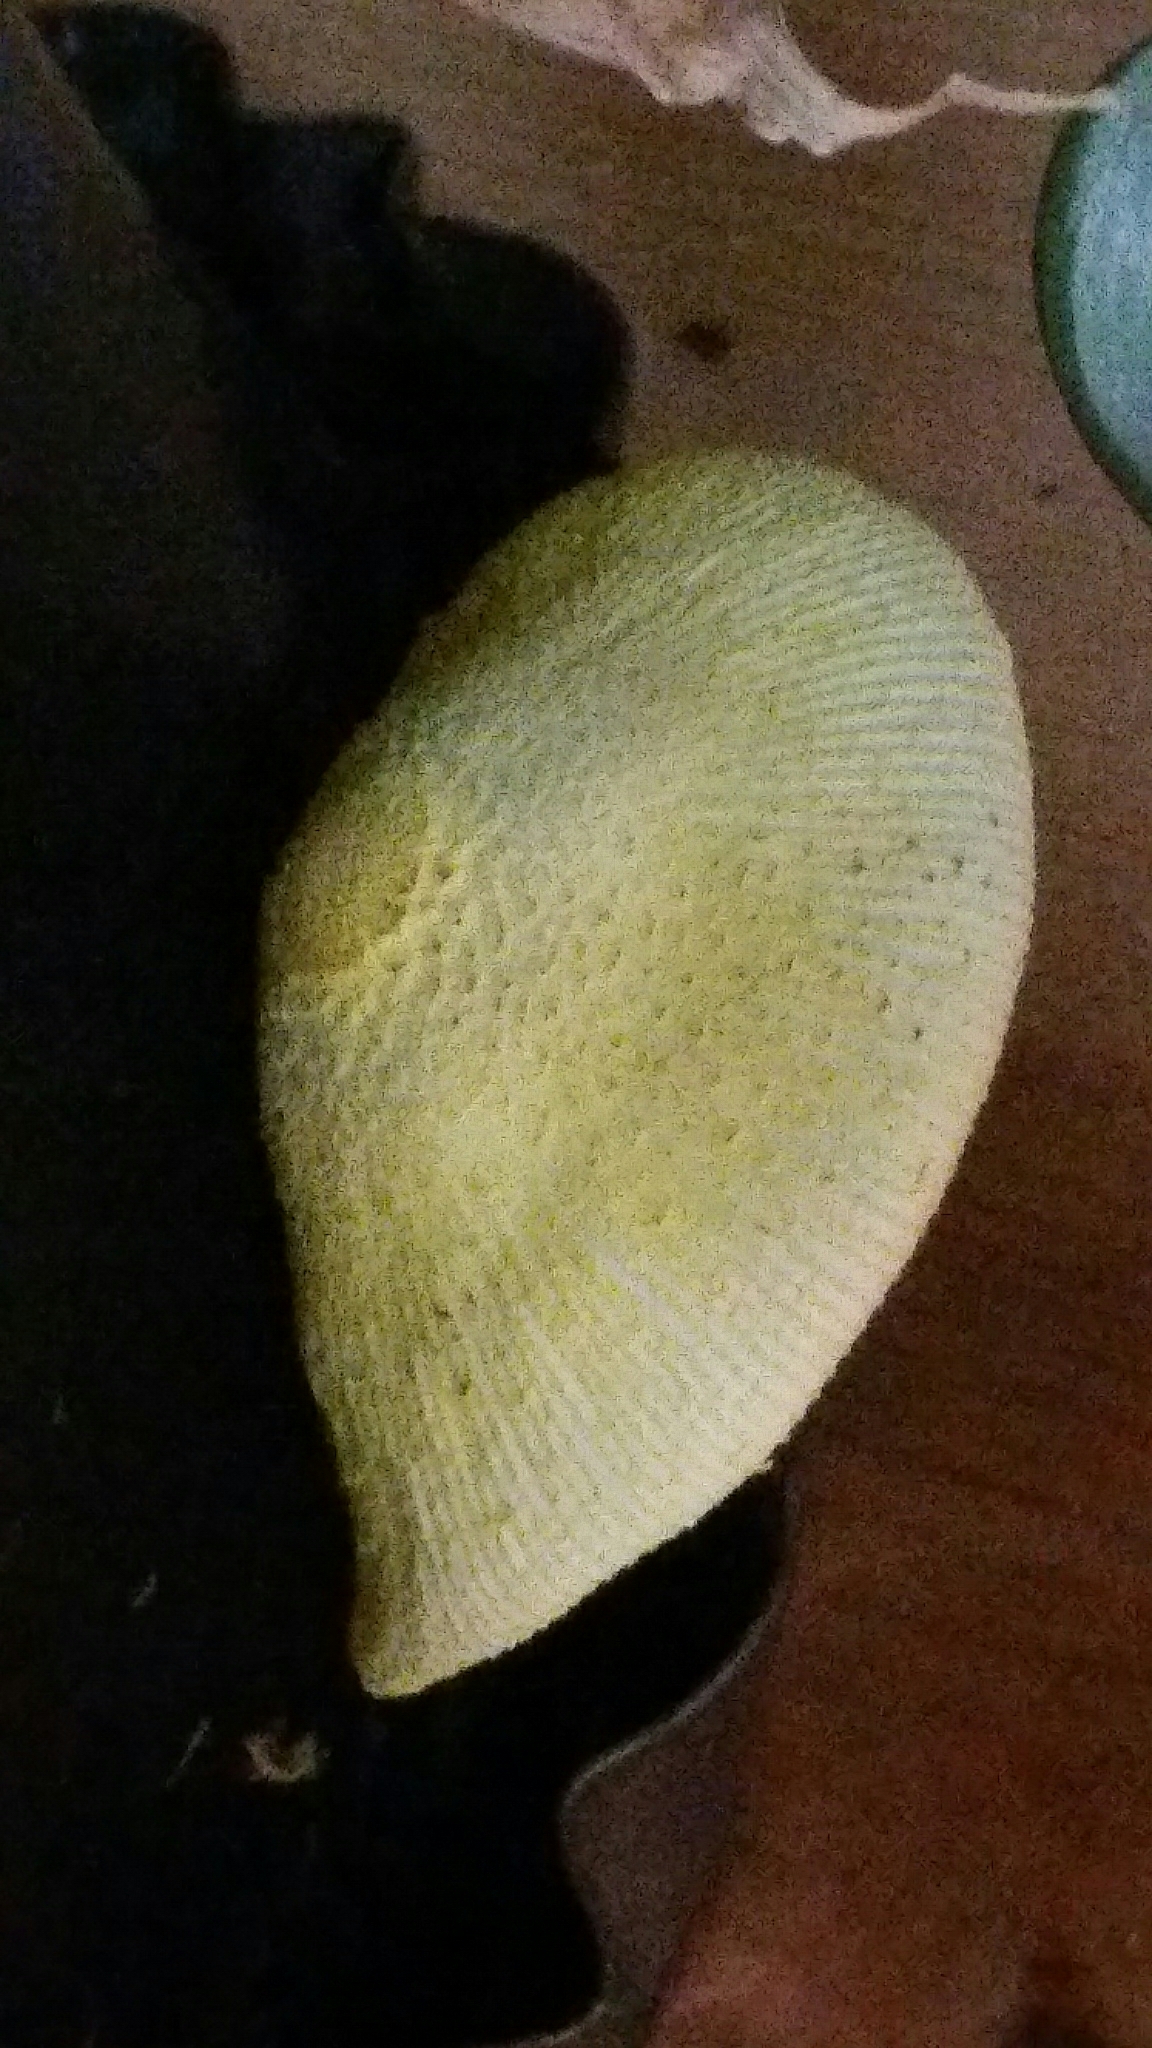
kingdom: Fungi
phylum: Basidiomycota
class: Agaricomycetes
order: Agaricales
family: Agaricaceae
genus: Leucocoprinus
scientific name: Leucocoprinus birnbaumii
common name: Plantpot dapperling
